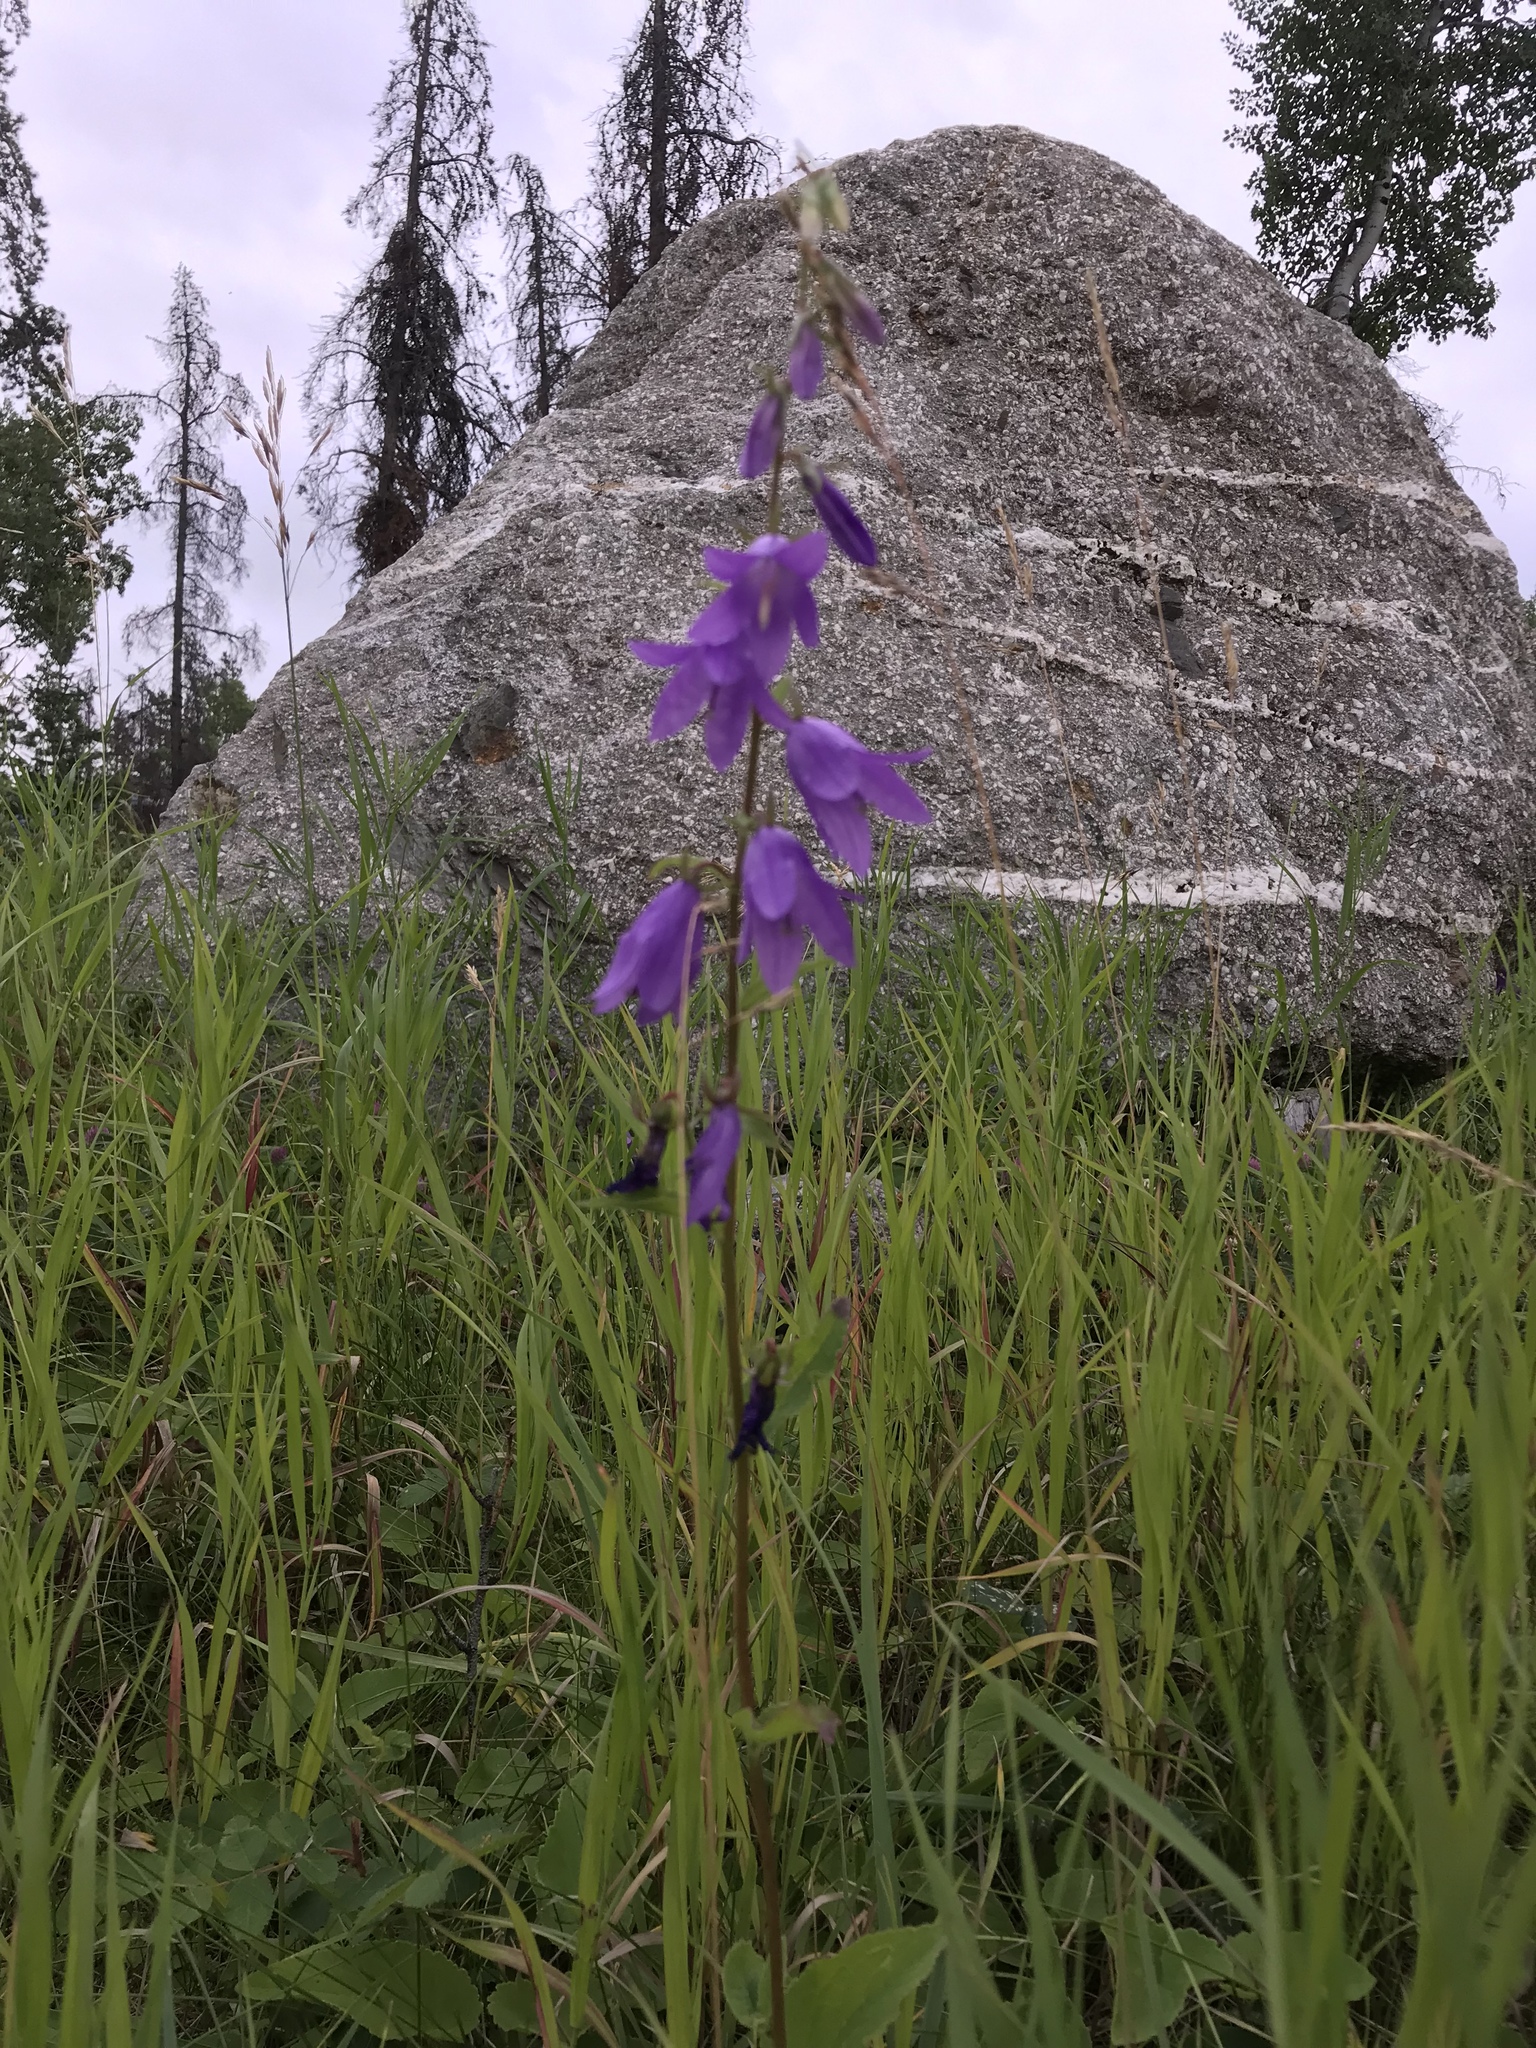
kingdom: Plantae
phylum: Tracheophyta
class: Magnoliopsida
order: Asterales
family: Campanulaceae
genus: Campanula
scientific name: Campanula rapunculoides
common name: Creeping bellflower
